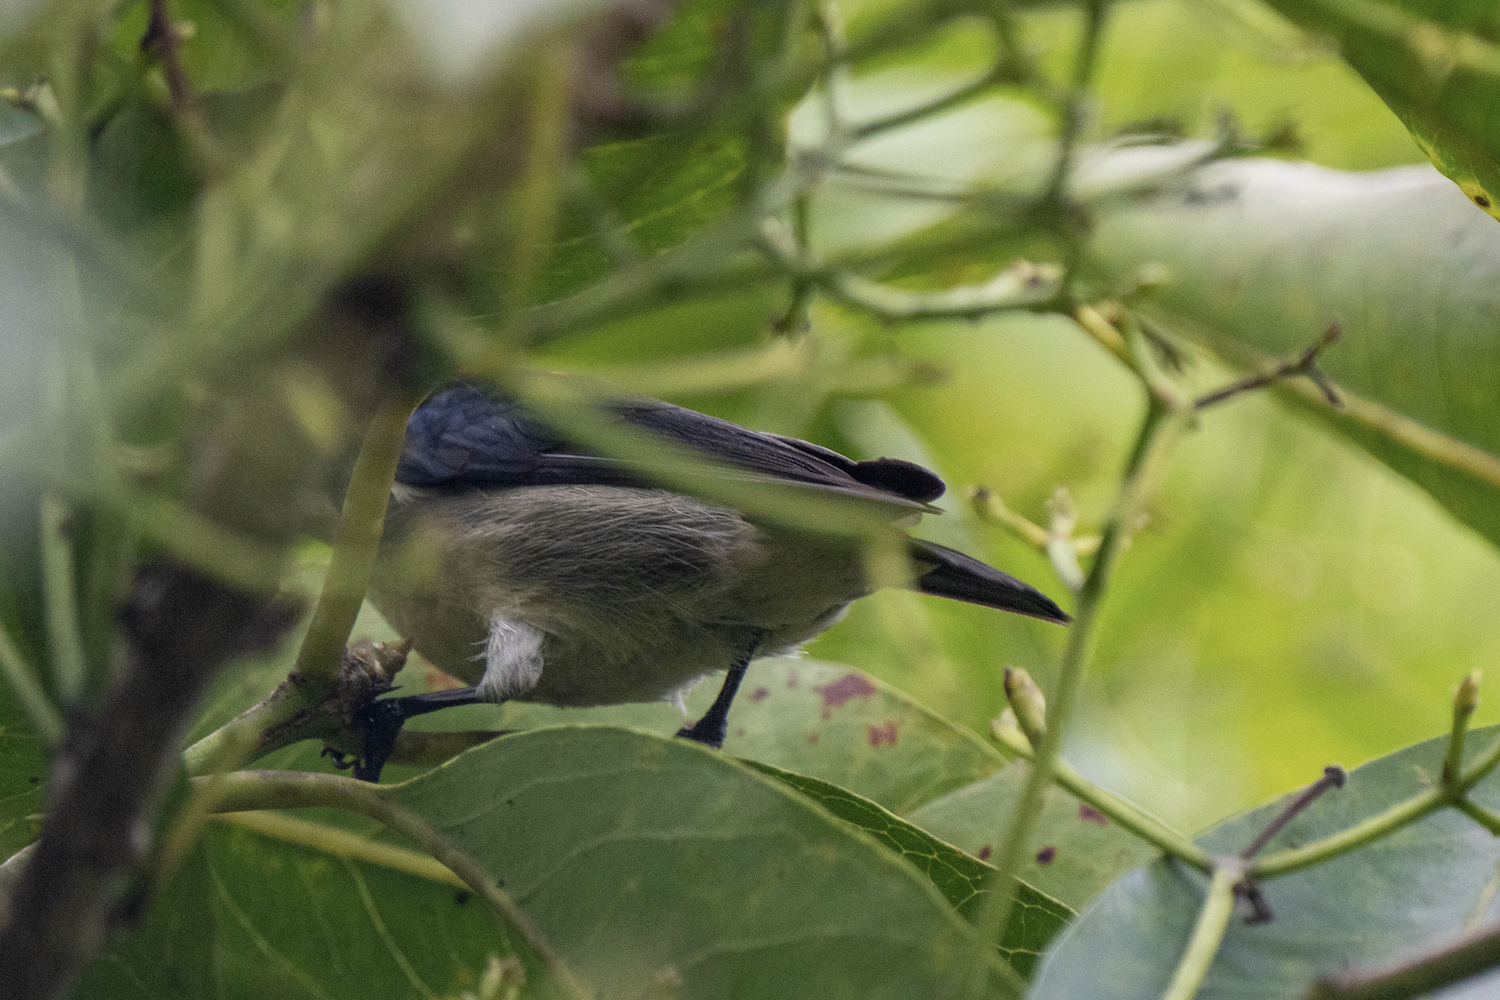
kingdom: Animalia
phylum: Chordata
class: Aves
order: Passeriformes
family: Dicaeidae
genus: Dicaeum
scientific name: Dicaeum cruentatum
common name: Scarlet-backed flowerpecker
